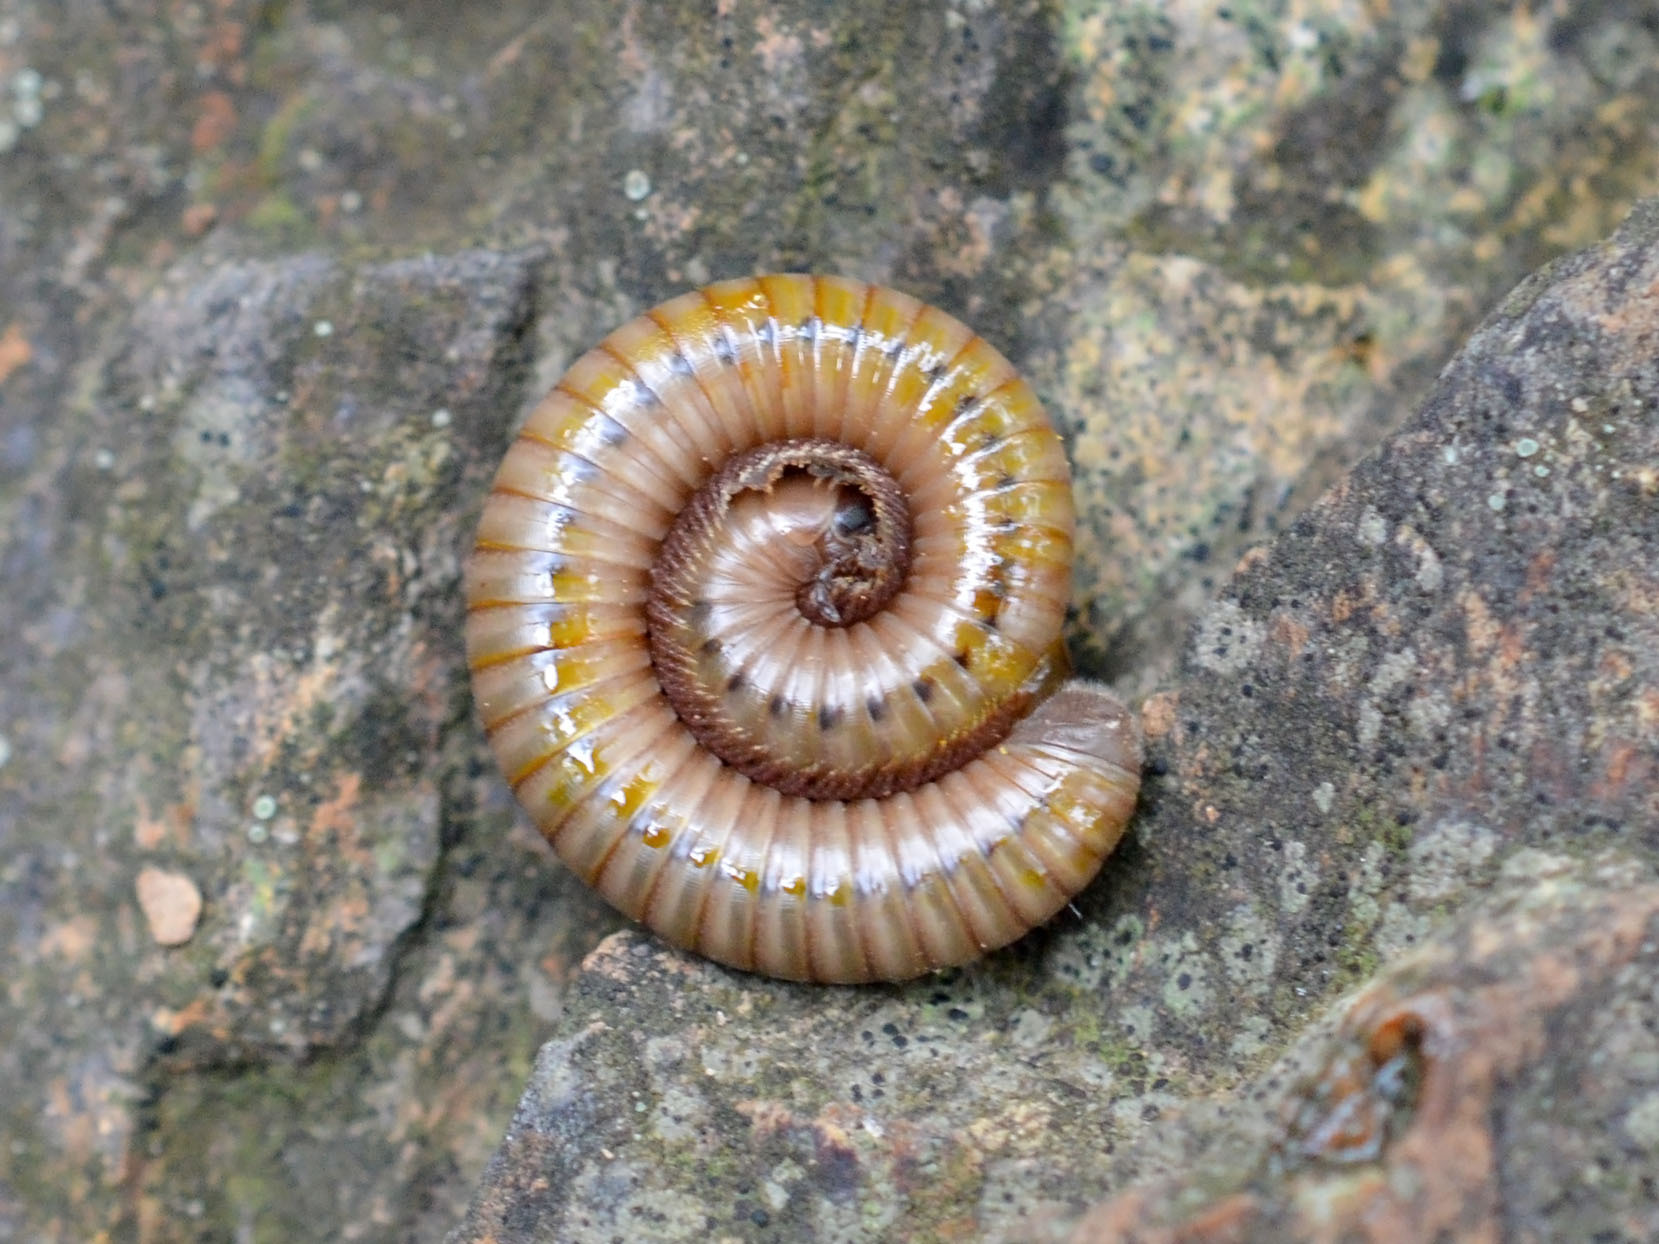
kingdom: Animalia
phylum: Arthropoda
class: Diplopoda
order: Julida
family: Julidae
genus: Pachyiulus
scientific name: Pachyiulus cattarensis
